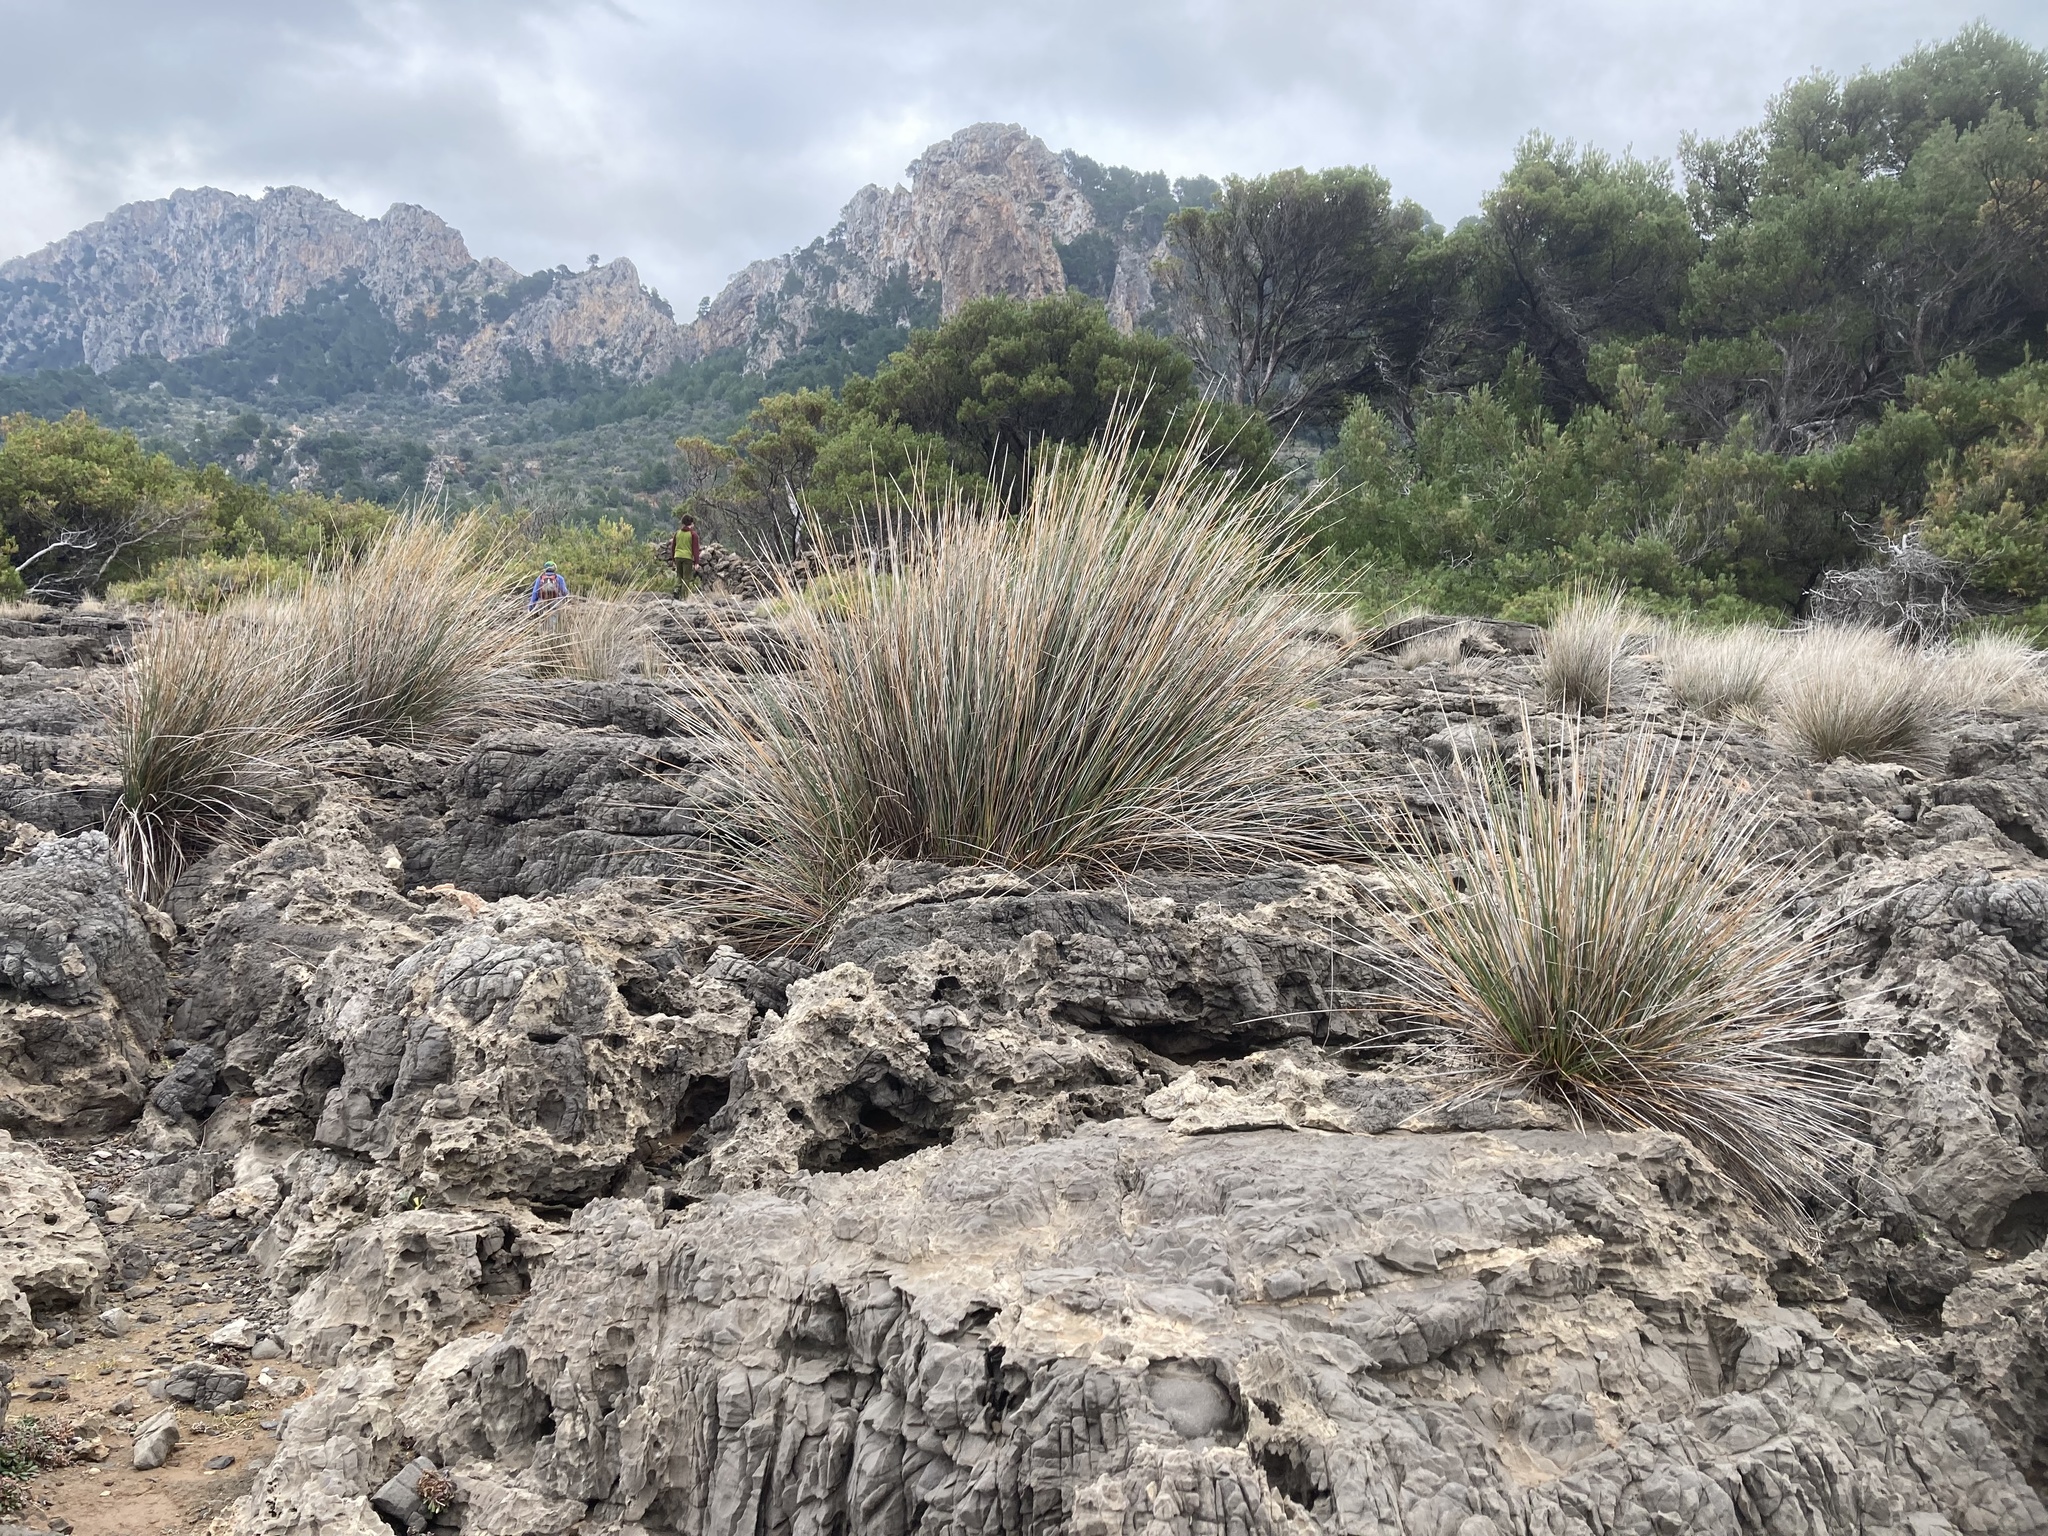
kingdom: Plantae
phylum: Tracheophyta
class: Liliopsida
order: Poales
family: Juncaceae
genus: Juncus
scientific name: Juncus acutus
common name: Sharp rush
